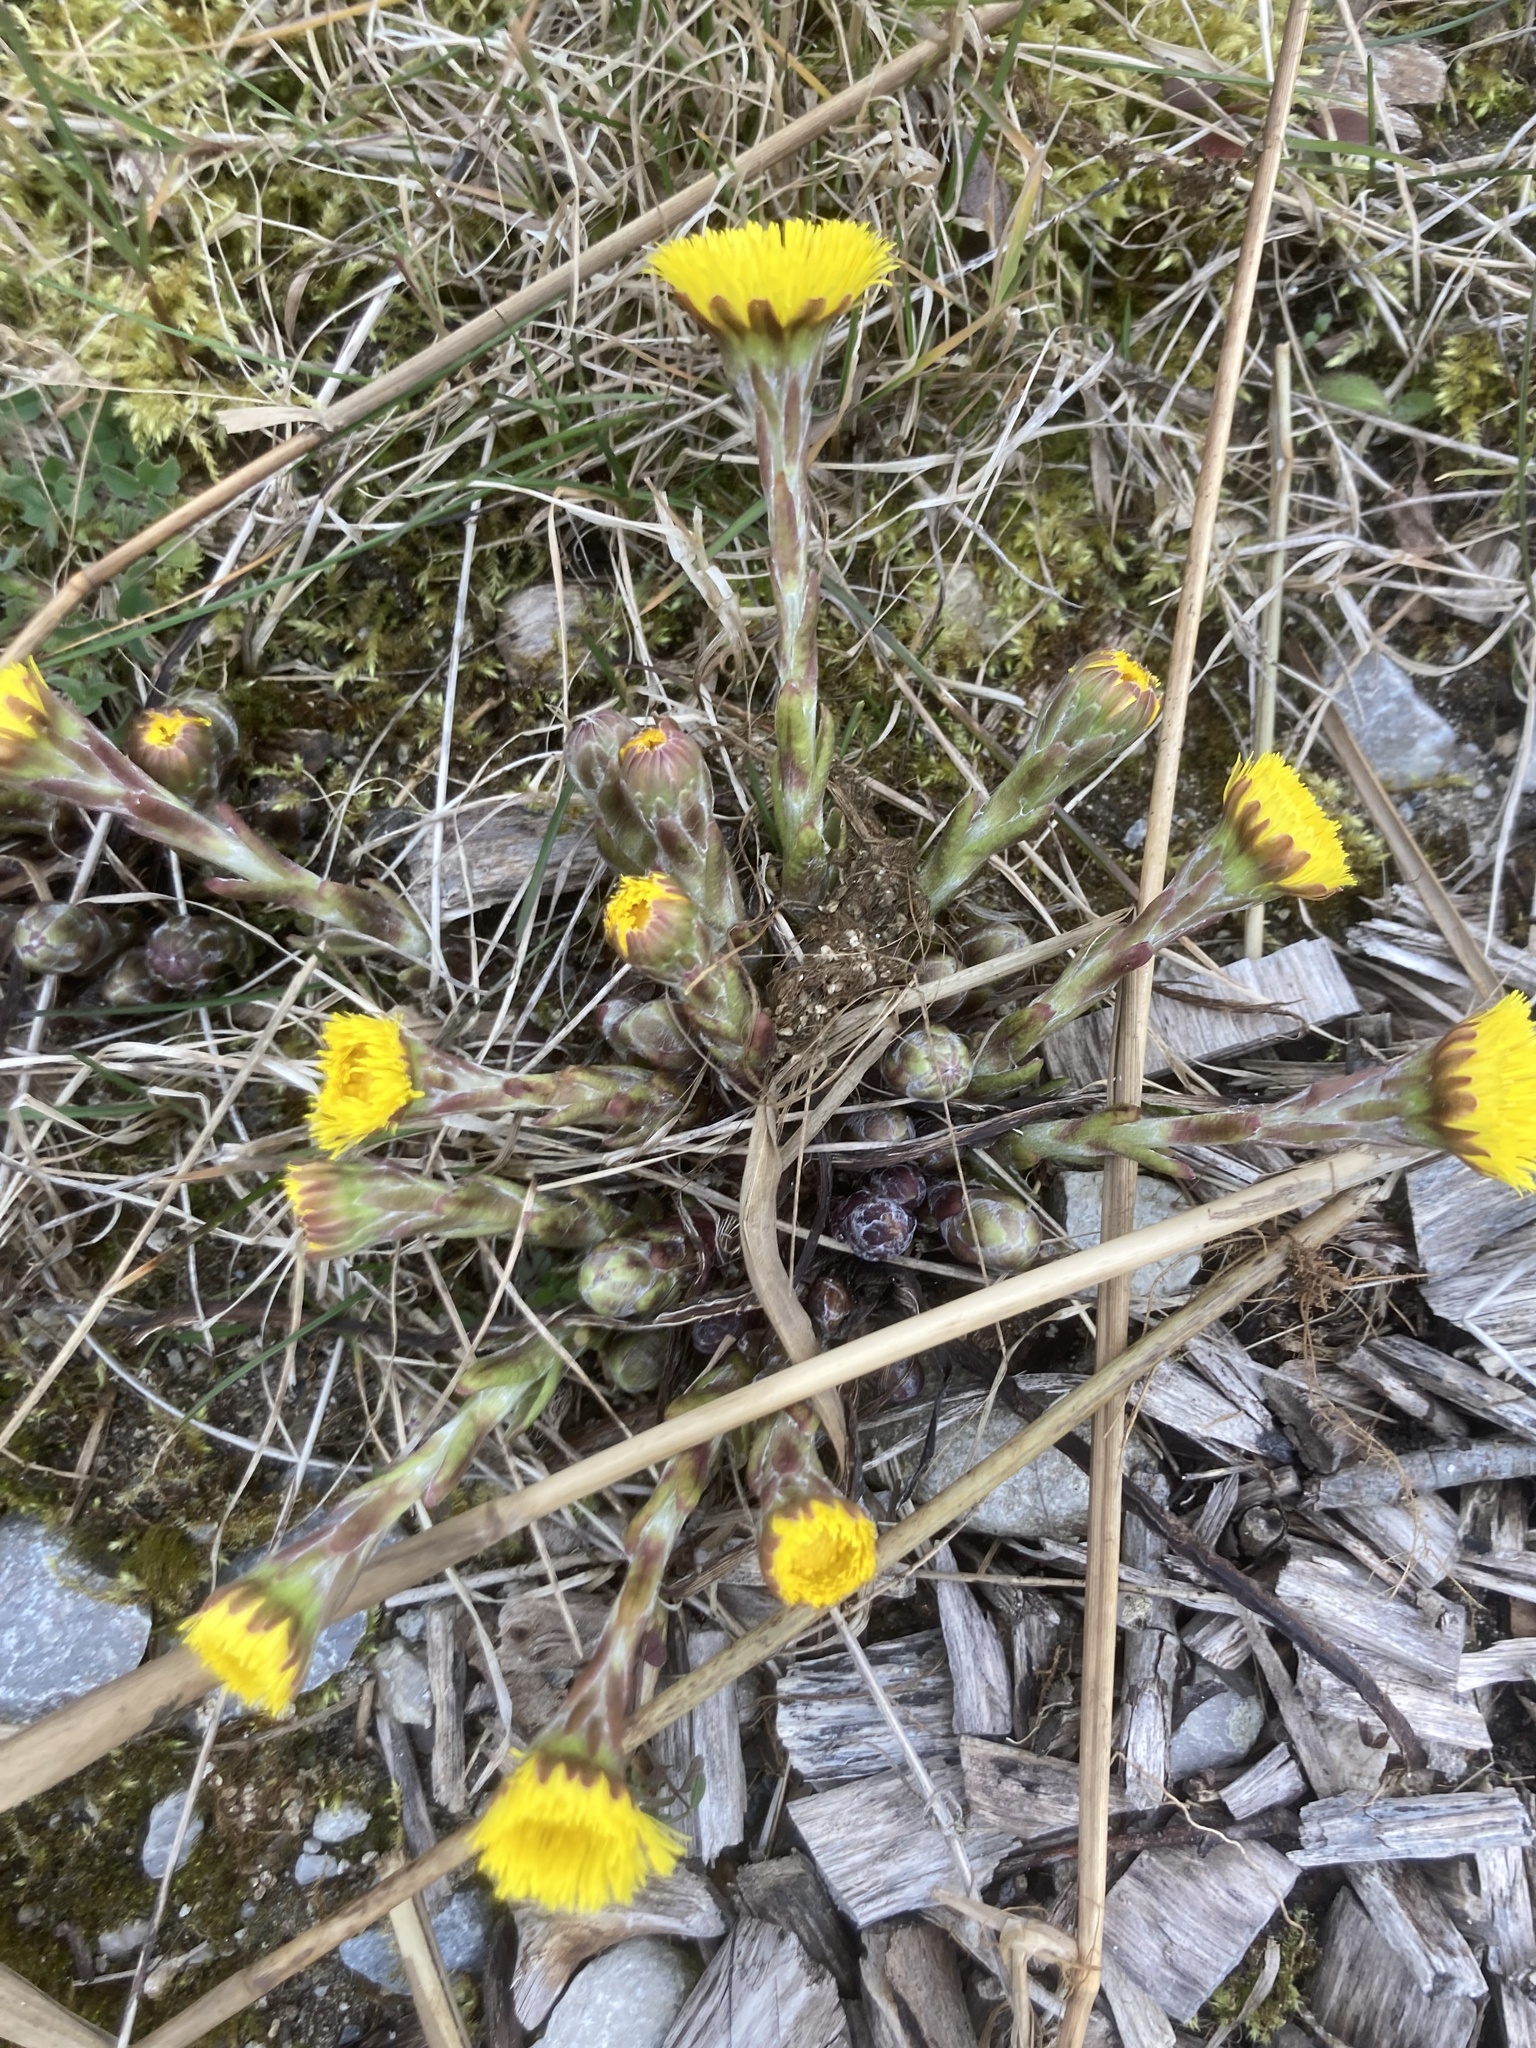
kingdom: Plantae
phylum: Tracheophyta
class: Magnoliopsida
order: Asterales
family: Asteraceae
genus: Tussilago
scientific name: Tussilago farfara
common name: Coltsfoot
